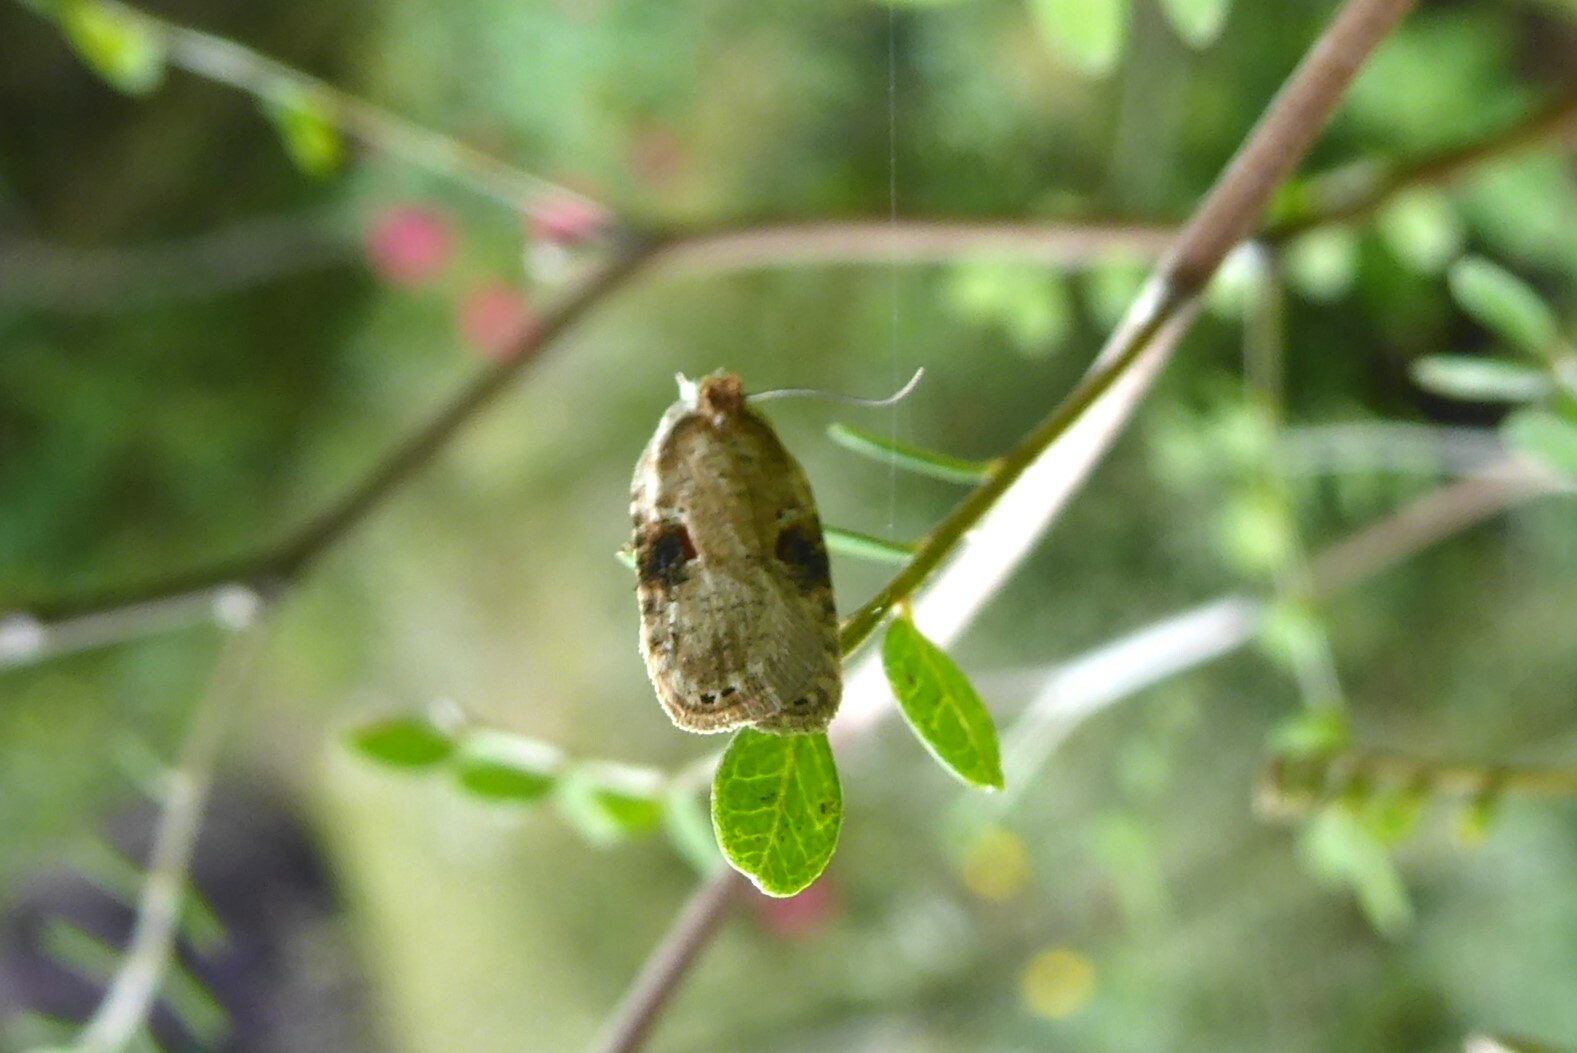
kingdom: Animalia
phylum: Arthropoda
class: Insecta
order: Lepidoptera
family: Depressariidae
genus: Agonopterix
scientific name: Agonopterix alstroemeriana
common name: Moth
